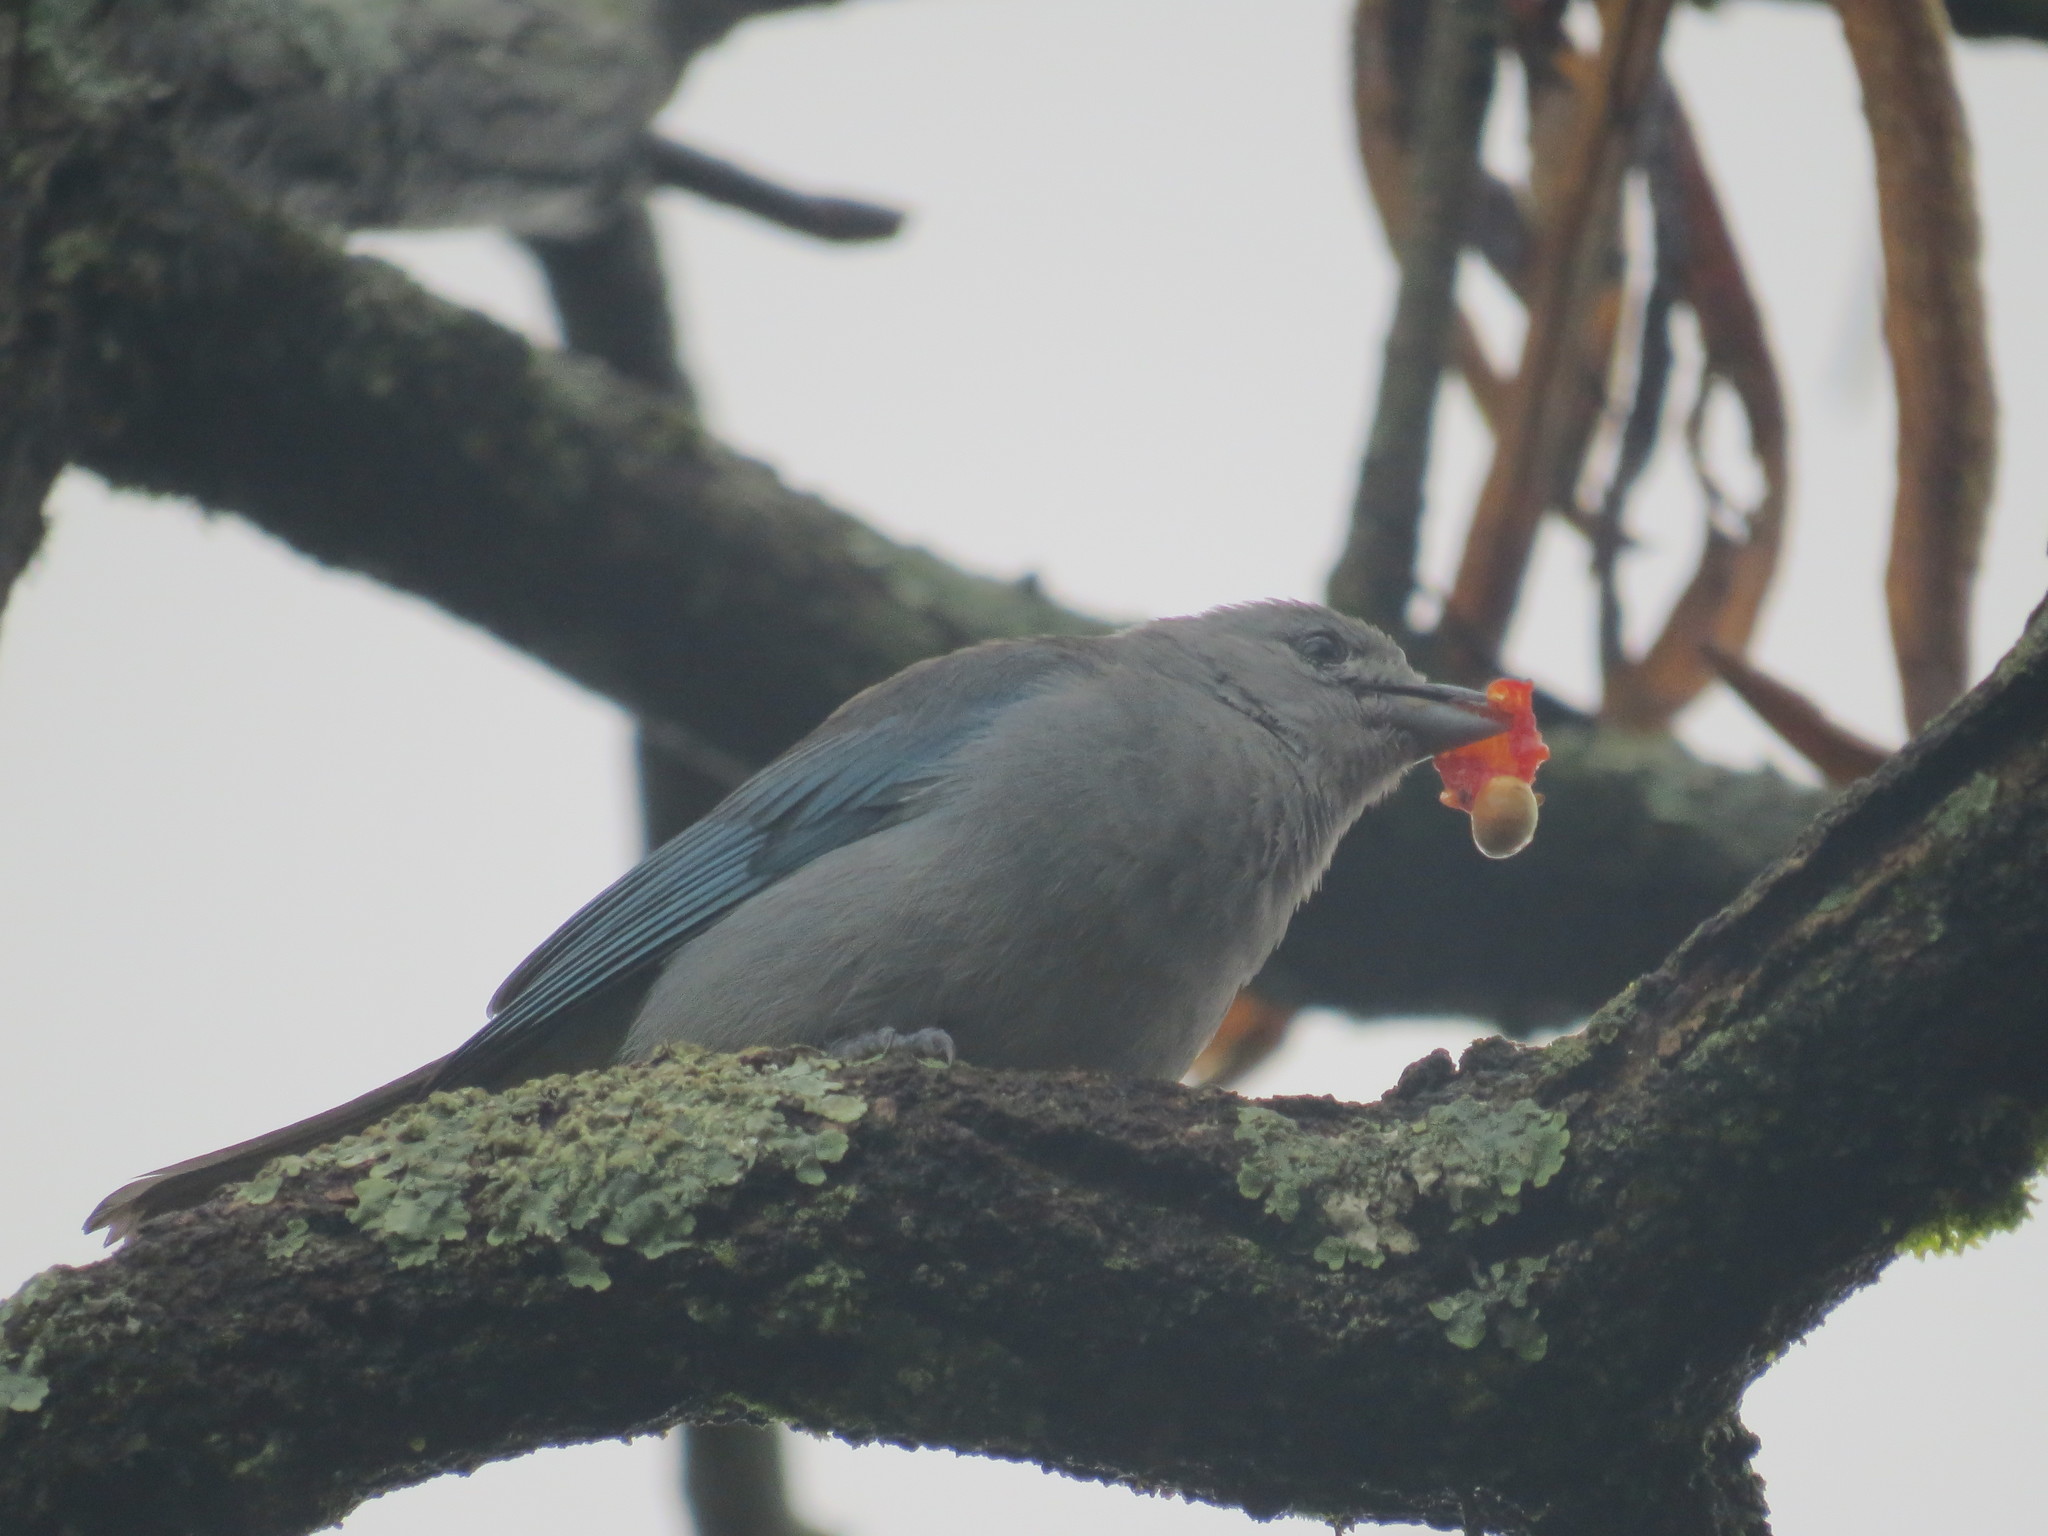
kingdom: Animalia
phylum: Chordata
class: Aves
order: Passeriformes
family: Thraupidae
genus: Thraupis
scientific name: Thraupis sayaca
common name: Sayaca tanager
